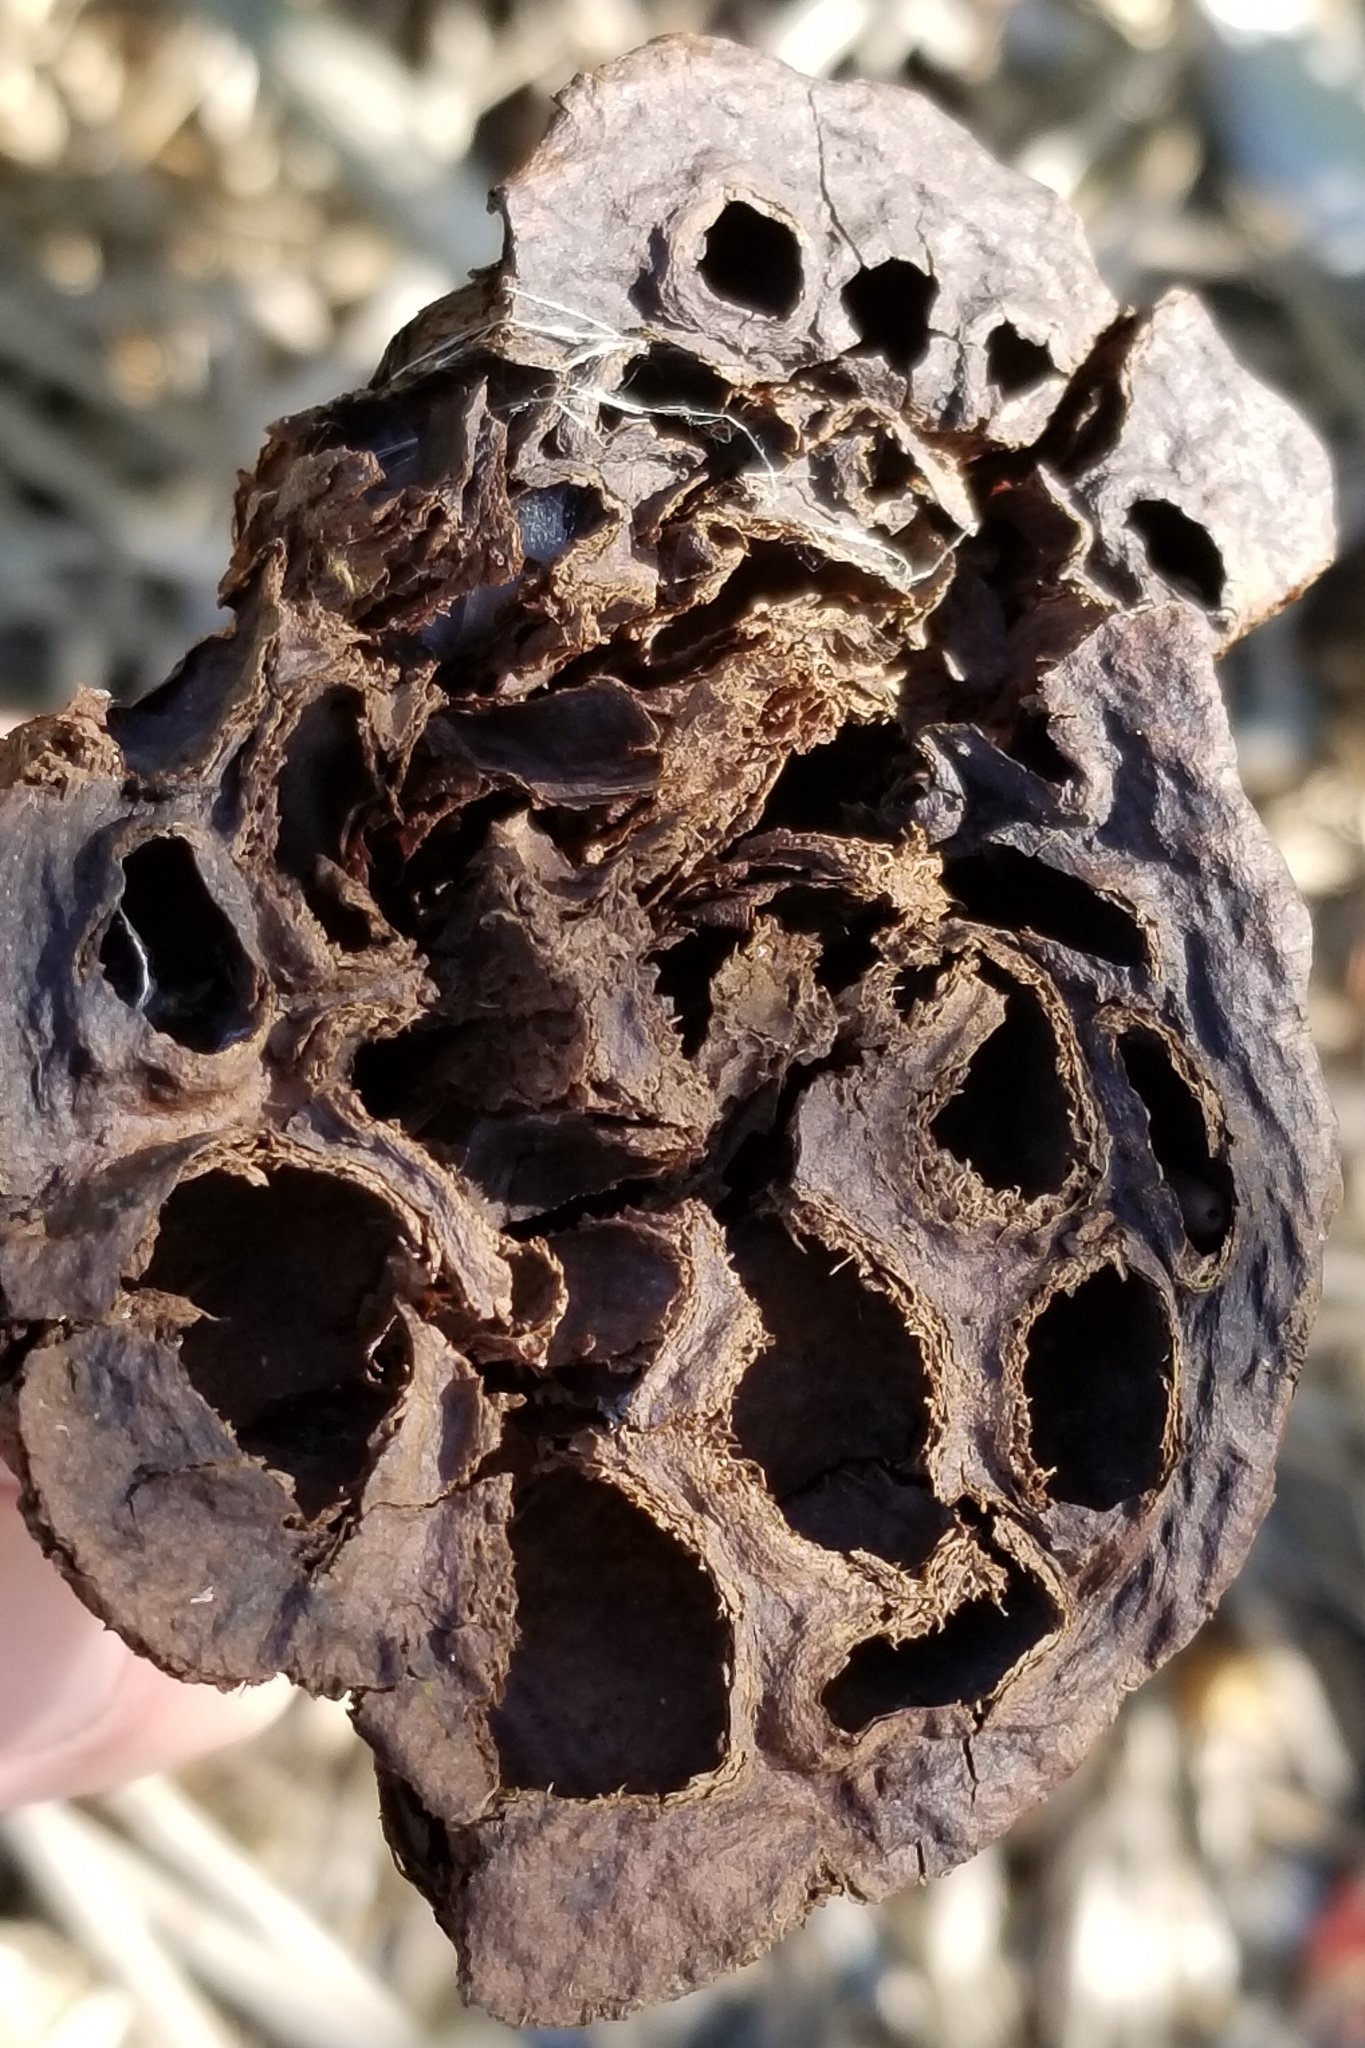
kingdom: Plantae
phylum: Tracheophyta
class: Magnoliopsida
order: Proteales
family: Nelumbonaceae
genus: Nelumbo
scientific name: Nelumbo lutea
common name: American lotus
